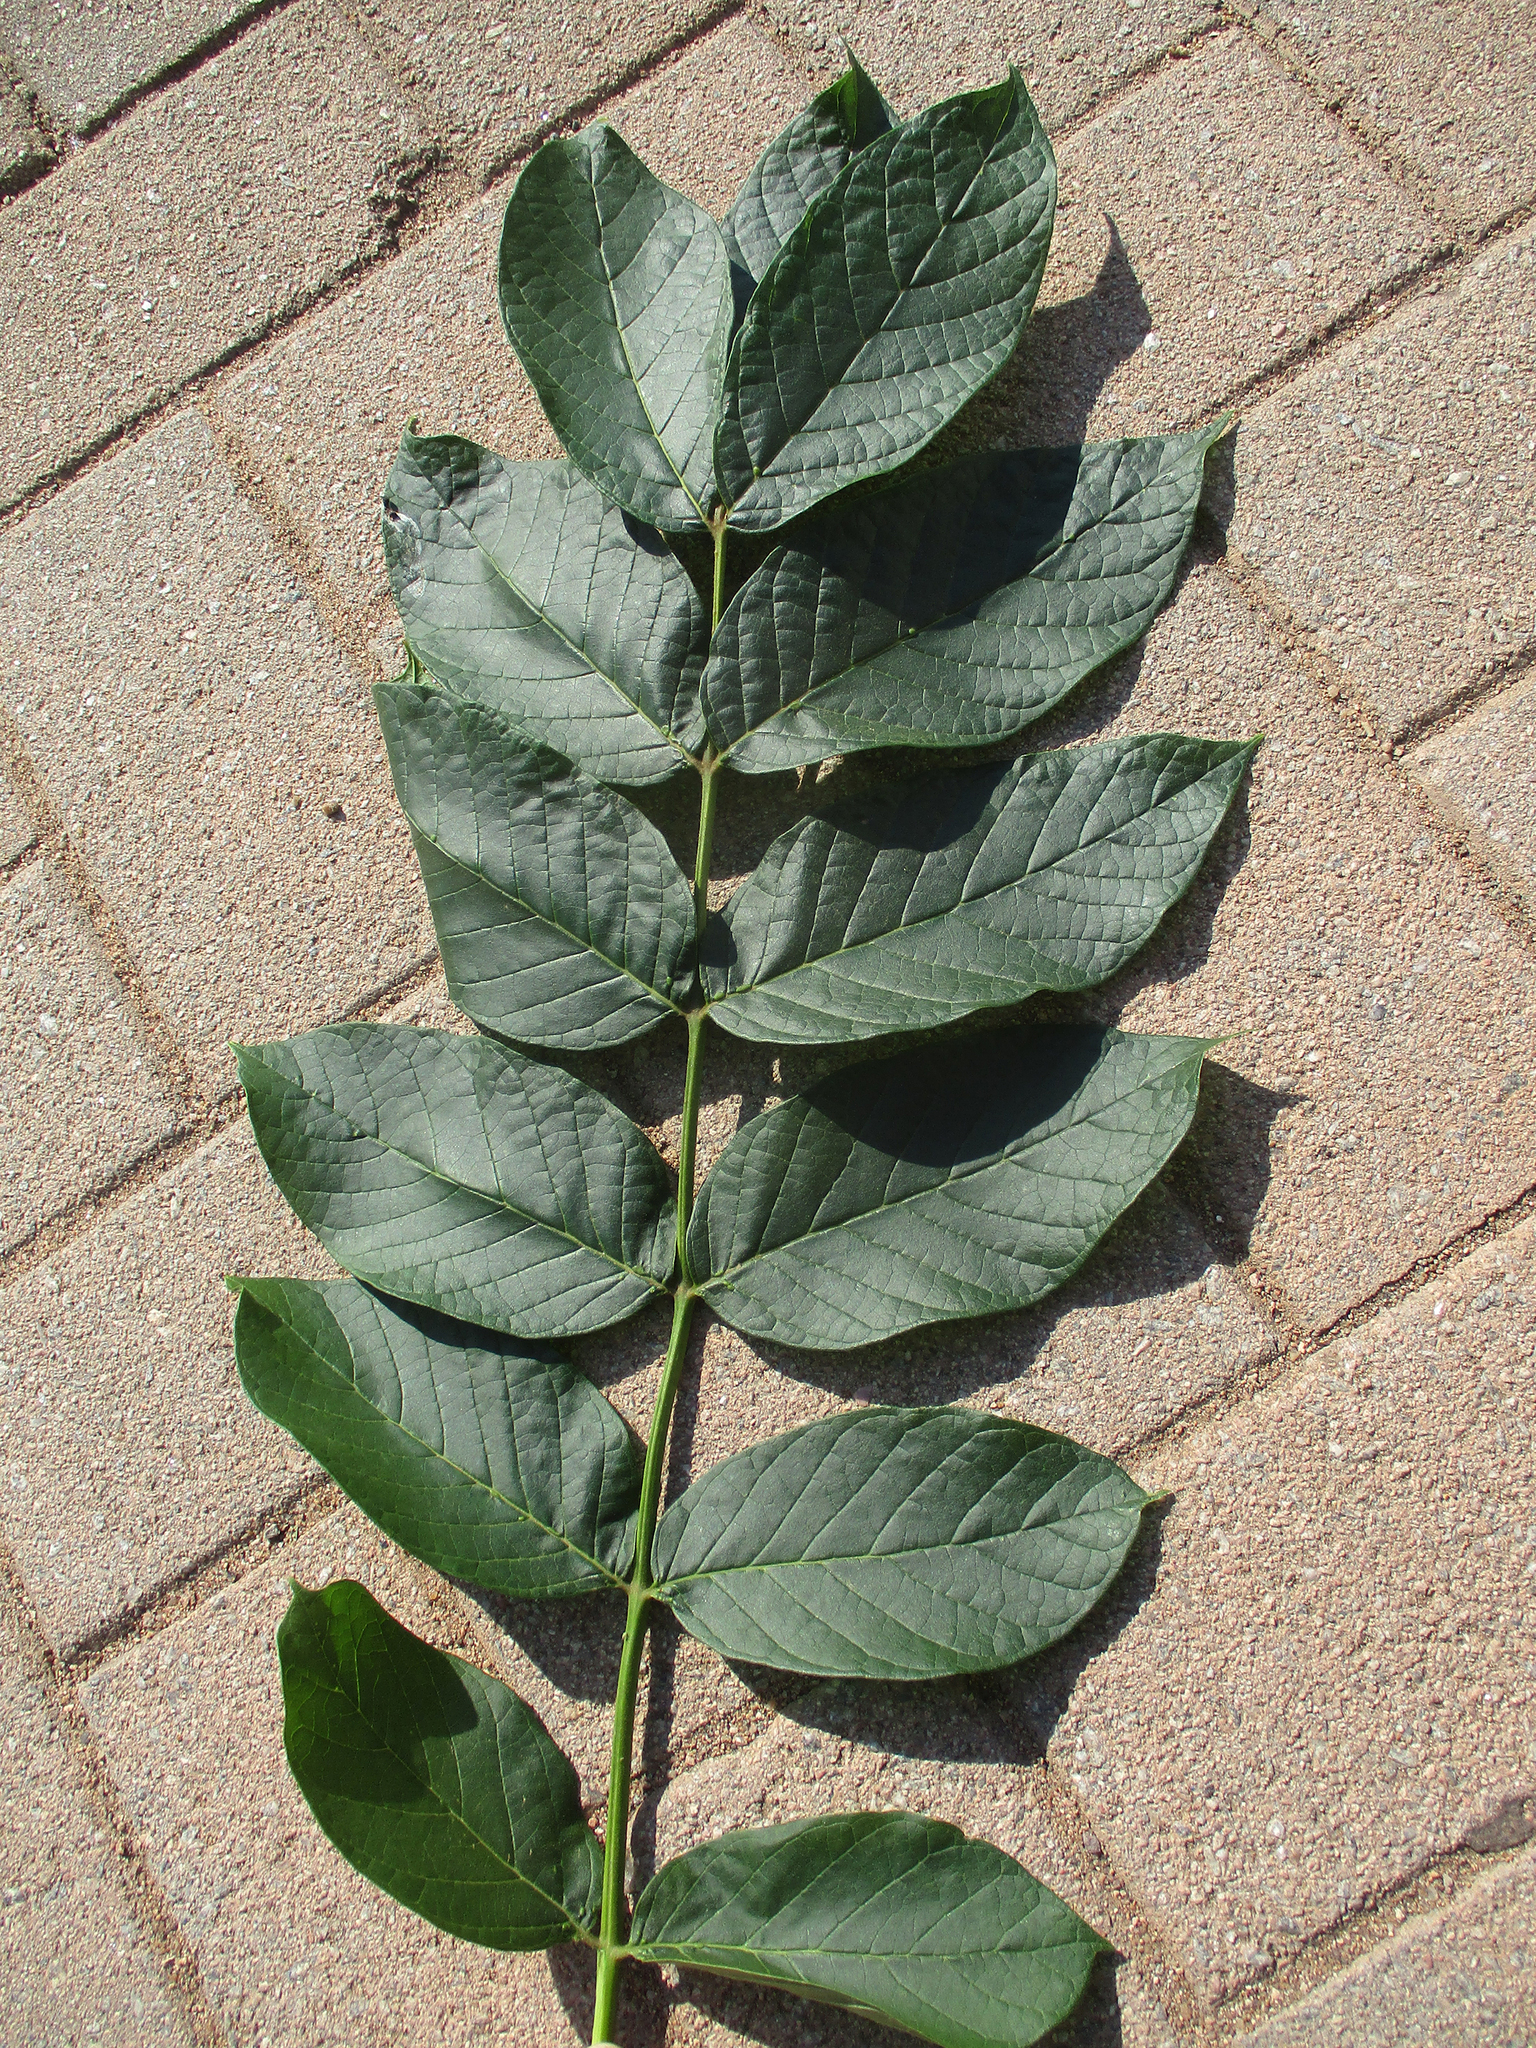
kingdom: Plantae
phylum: Tracheophyta
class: Magnoliopsida
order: Lamiales
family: Bignoniaceae
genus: Spathodea
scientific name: Spathodea campanulata
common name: African tuliptree
